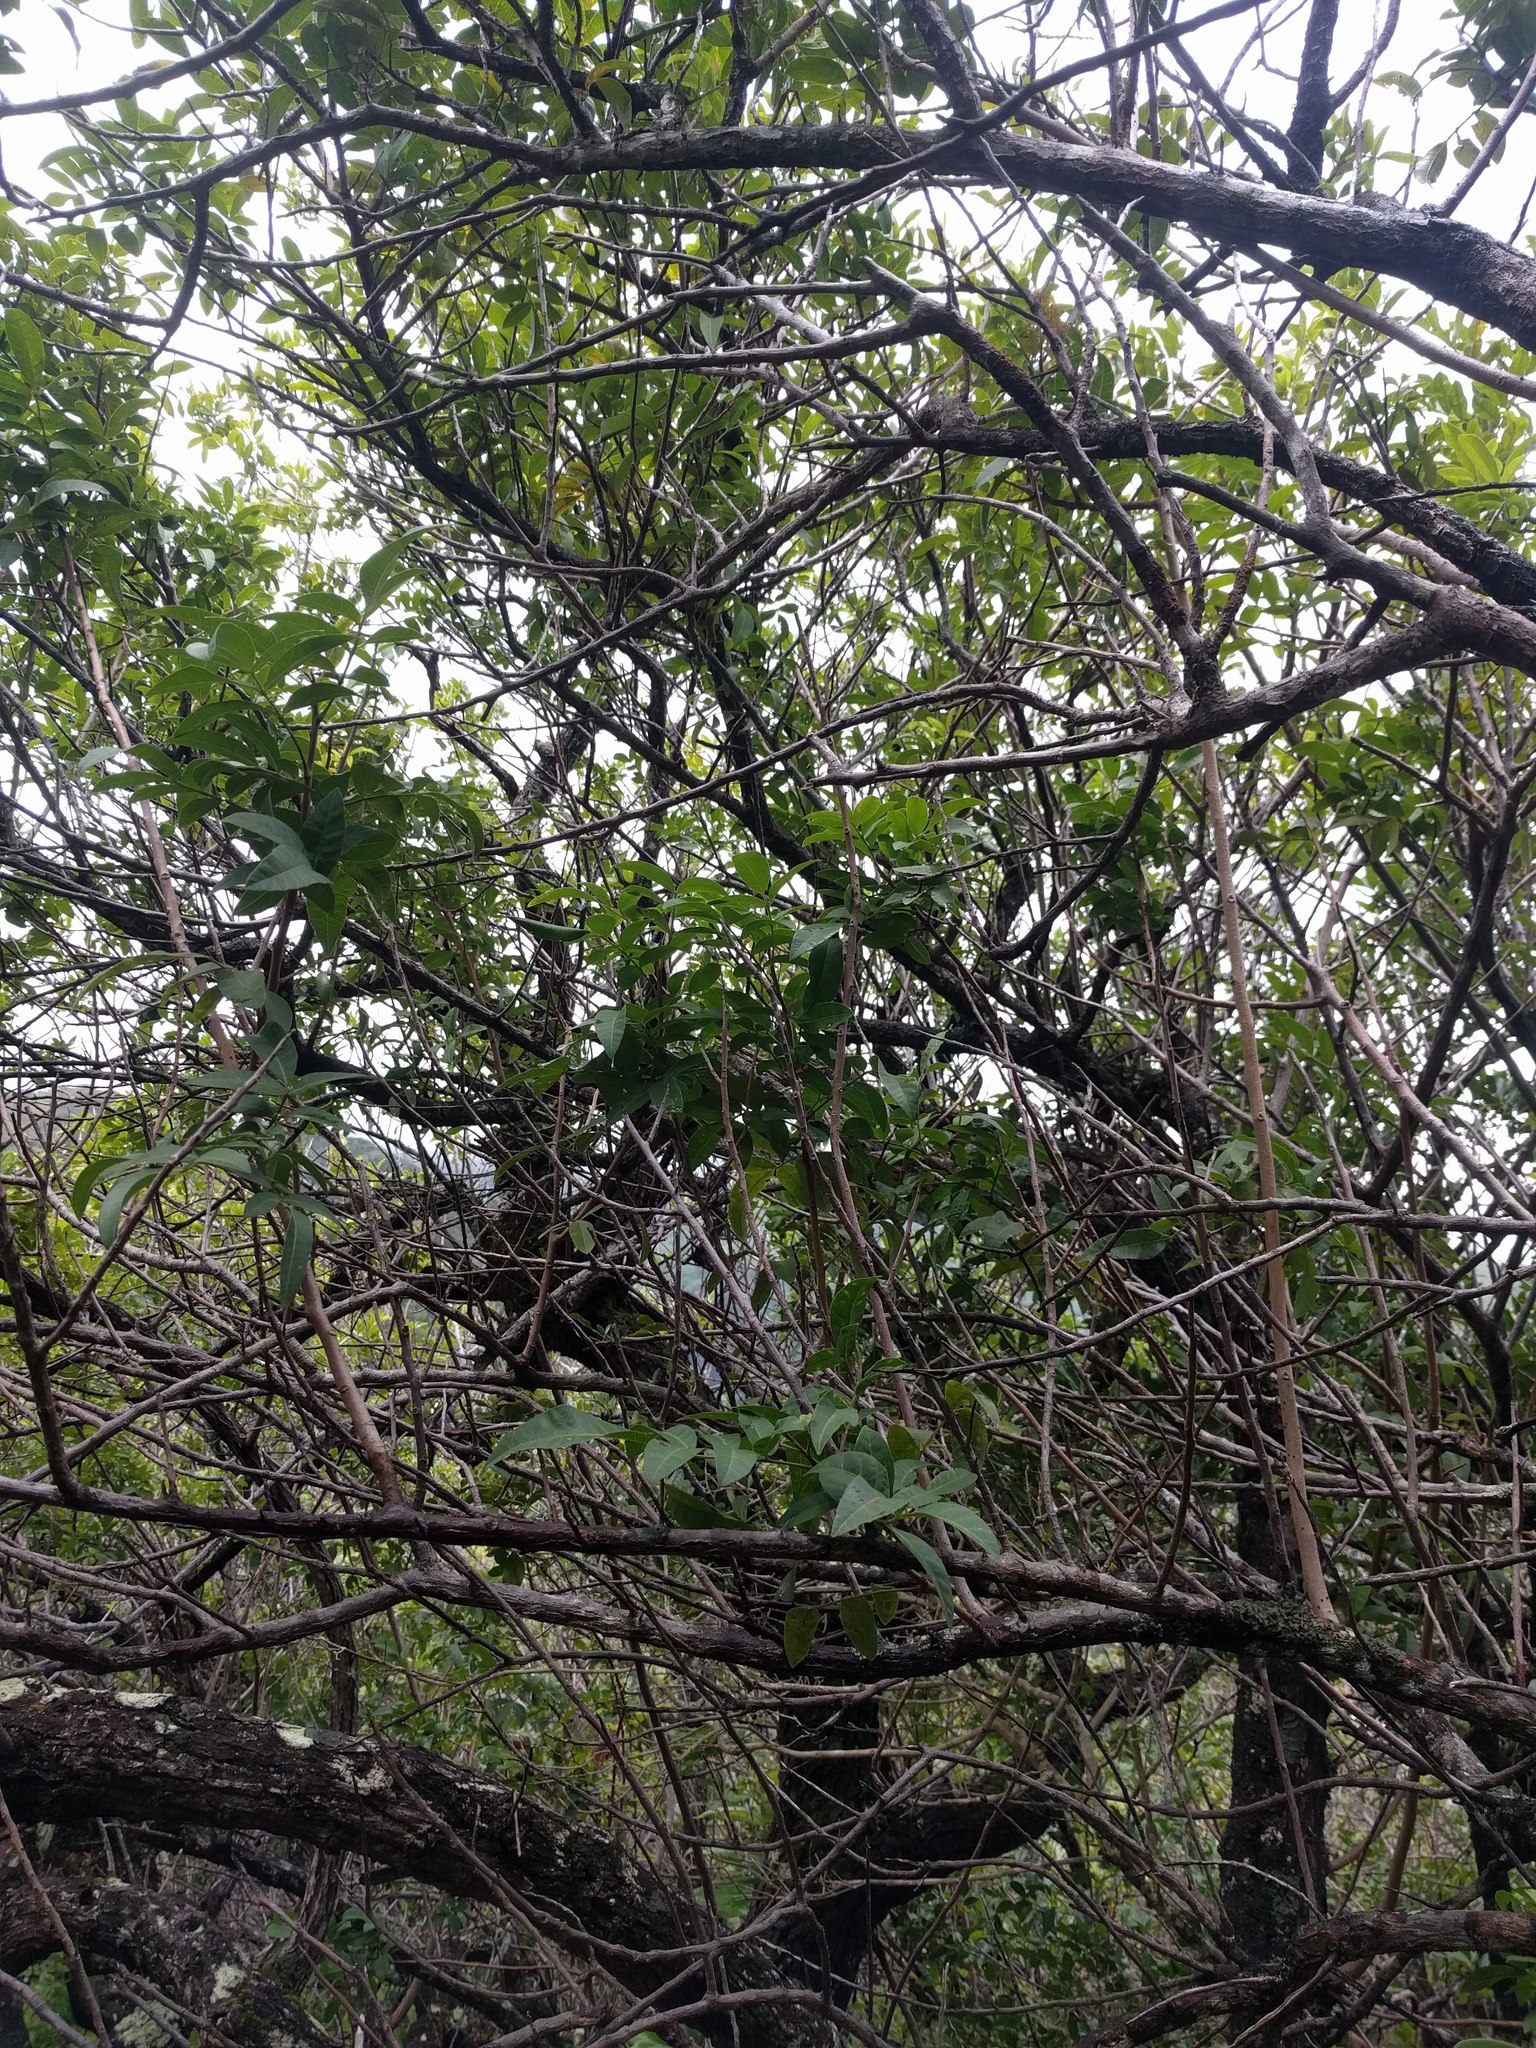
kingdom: Plantae
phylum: Tracheophyta
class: Magnoliopsida
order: Sapindales
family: Anacardiaceae
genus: Schinus
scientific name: Schinus terebinthifolia
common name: Brazilian peppertree
